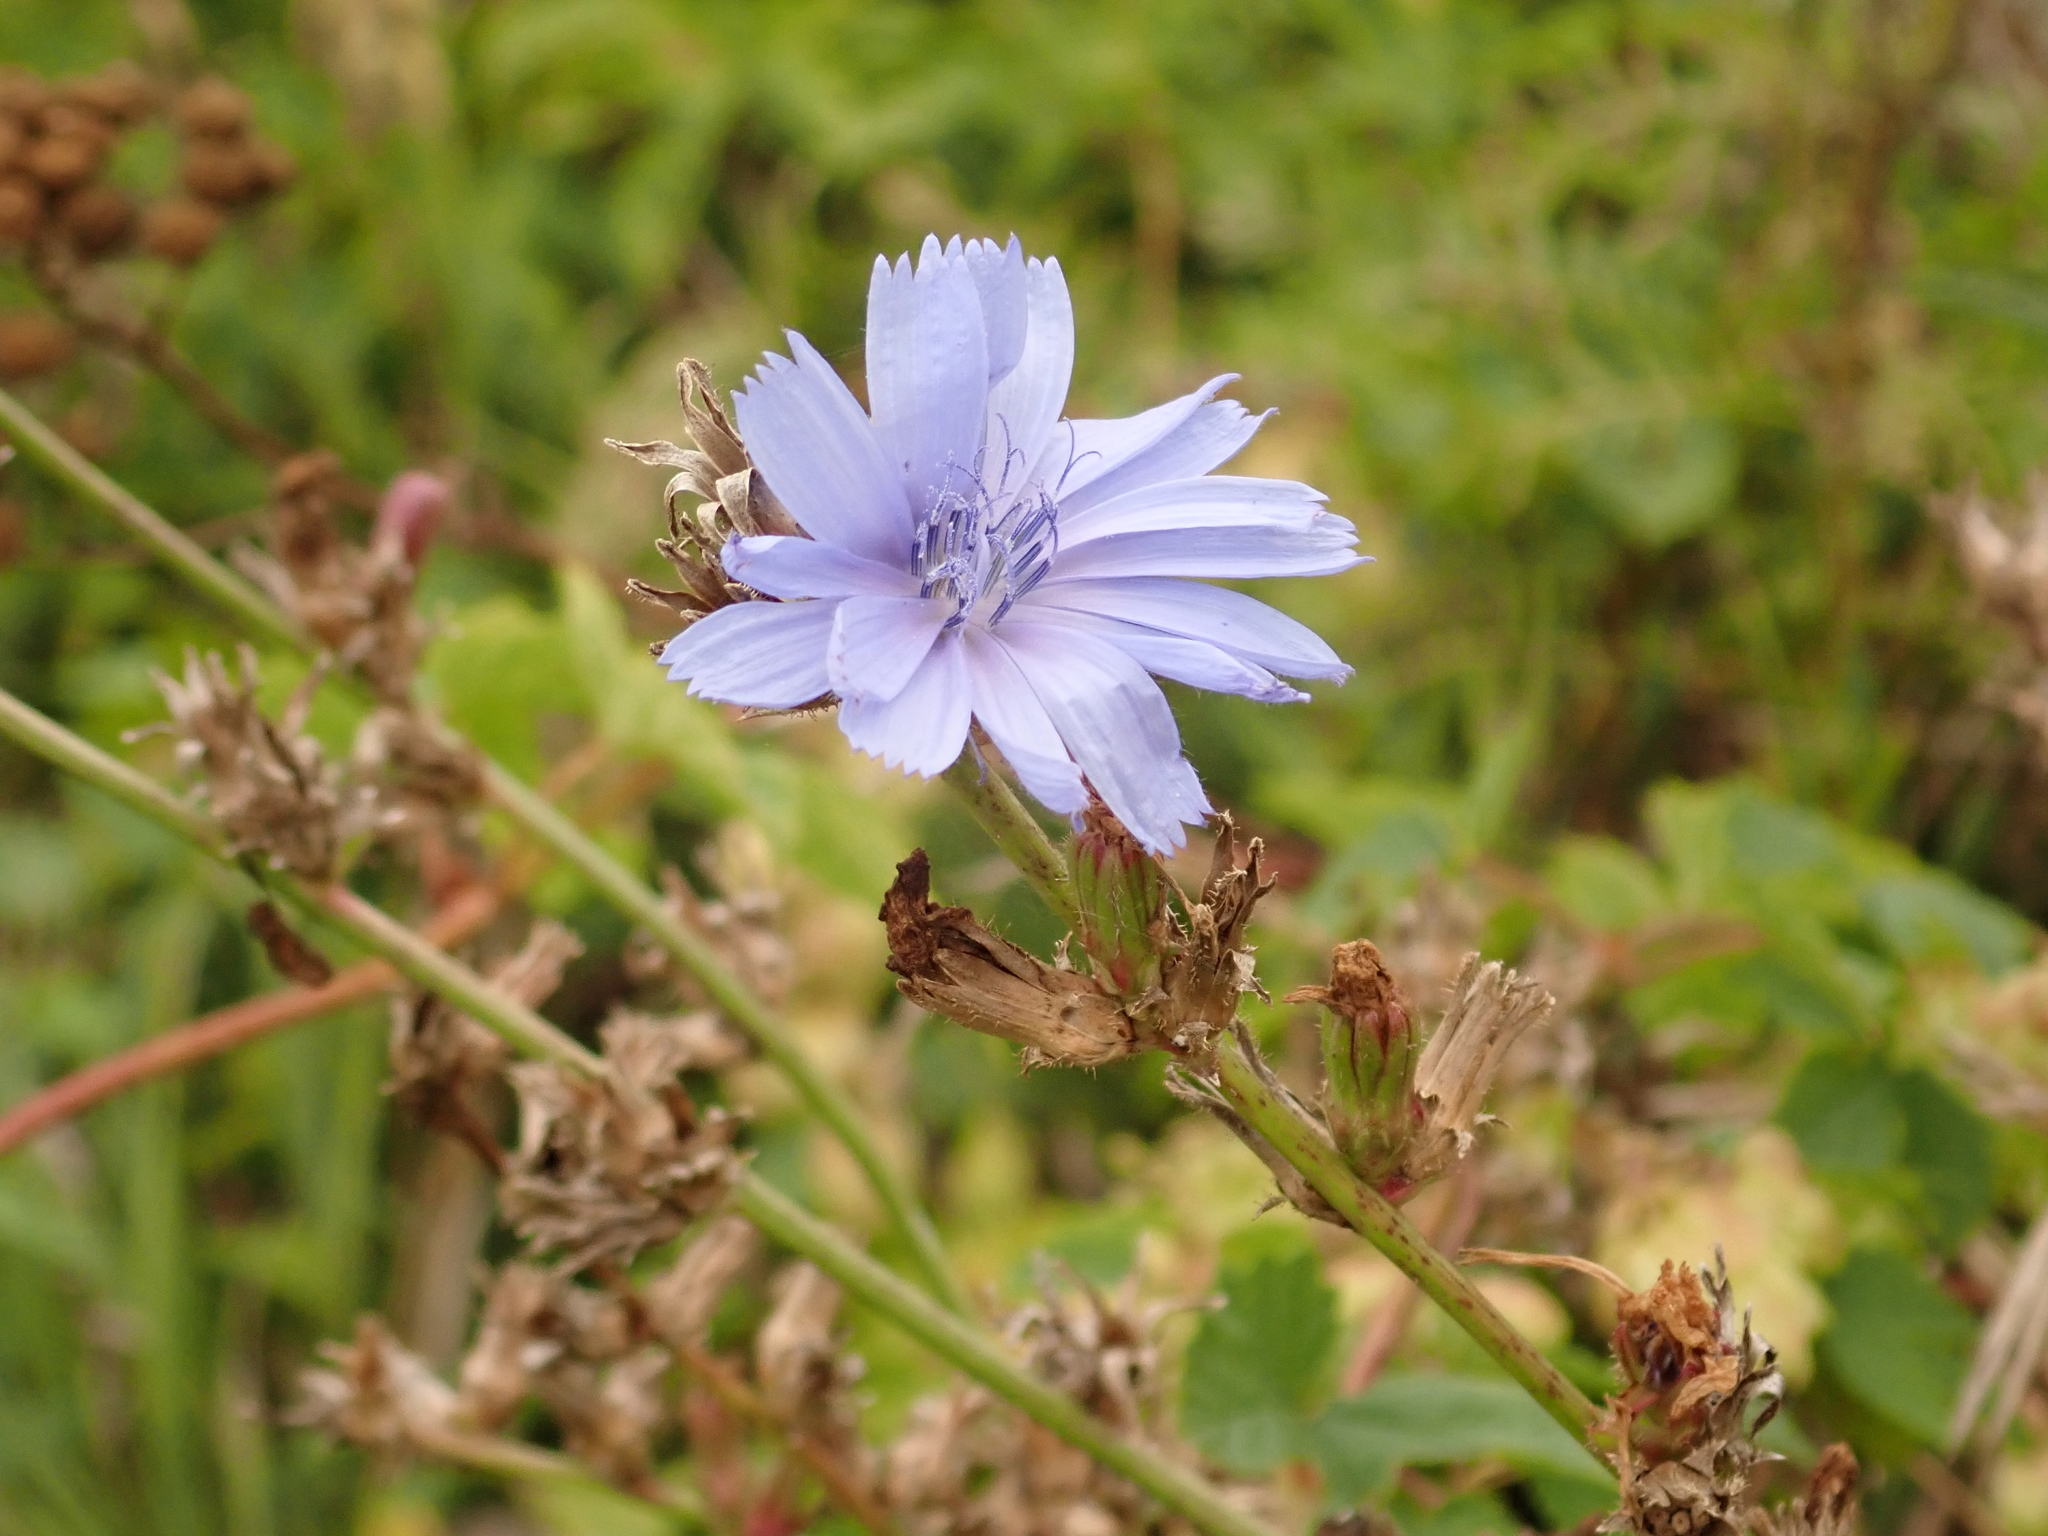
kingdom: Plantae
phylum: Tracheophyta
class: Magnoliopsida
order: Asterales
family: Asteraceae
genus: Cichorium
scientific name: Cichorium intybus
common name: Chicory
